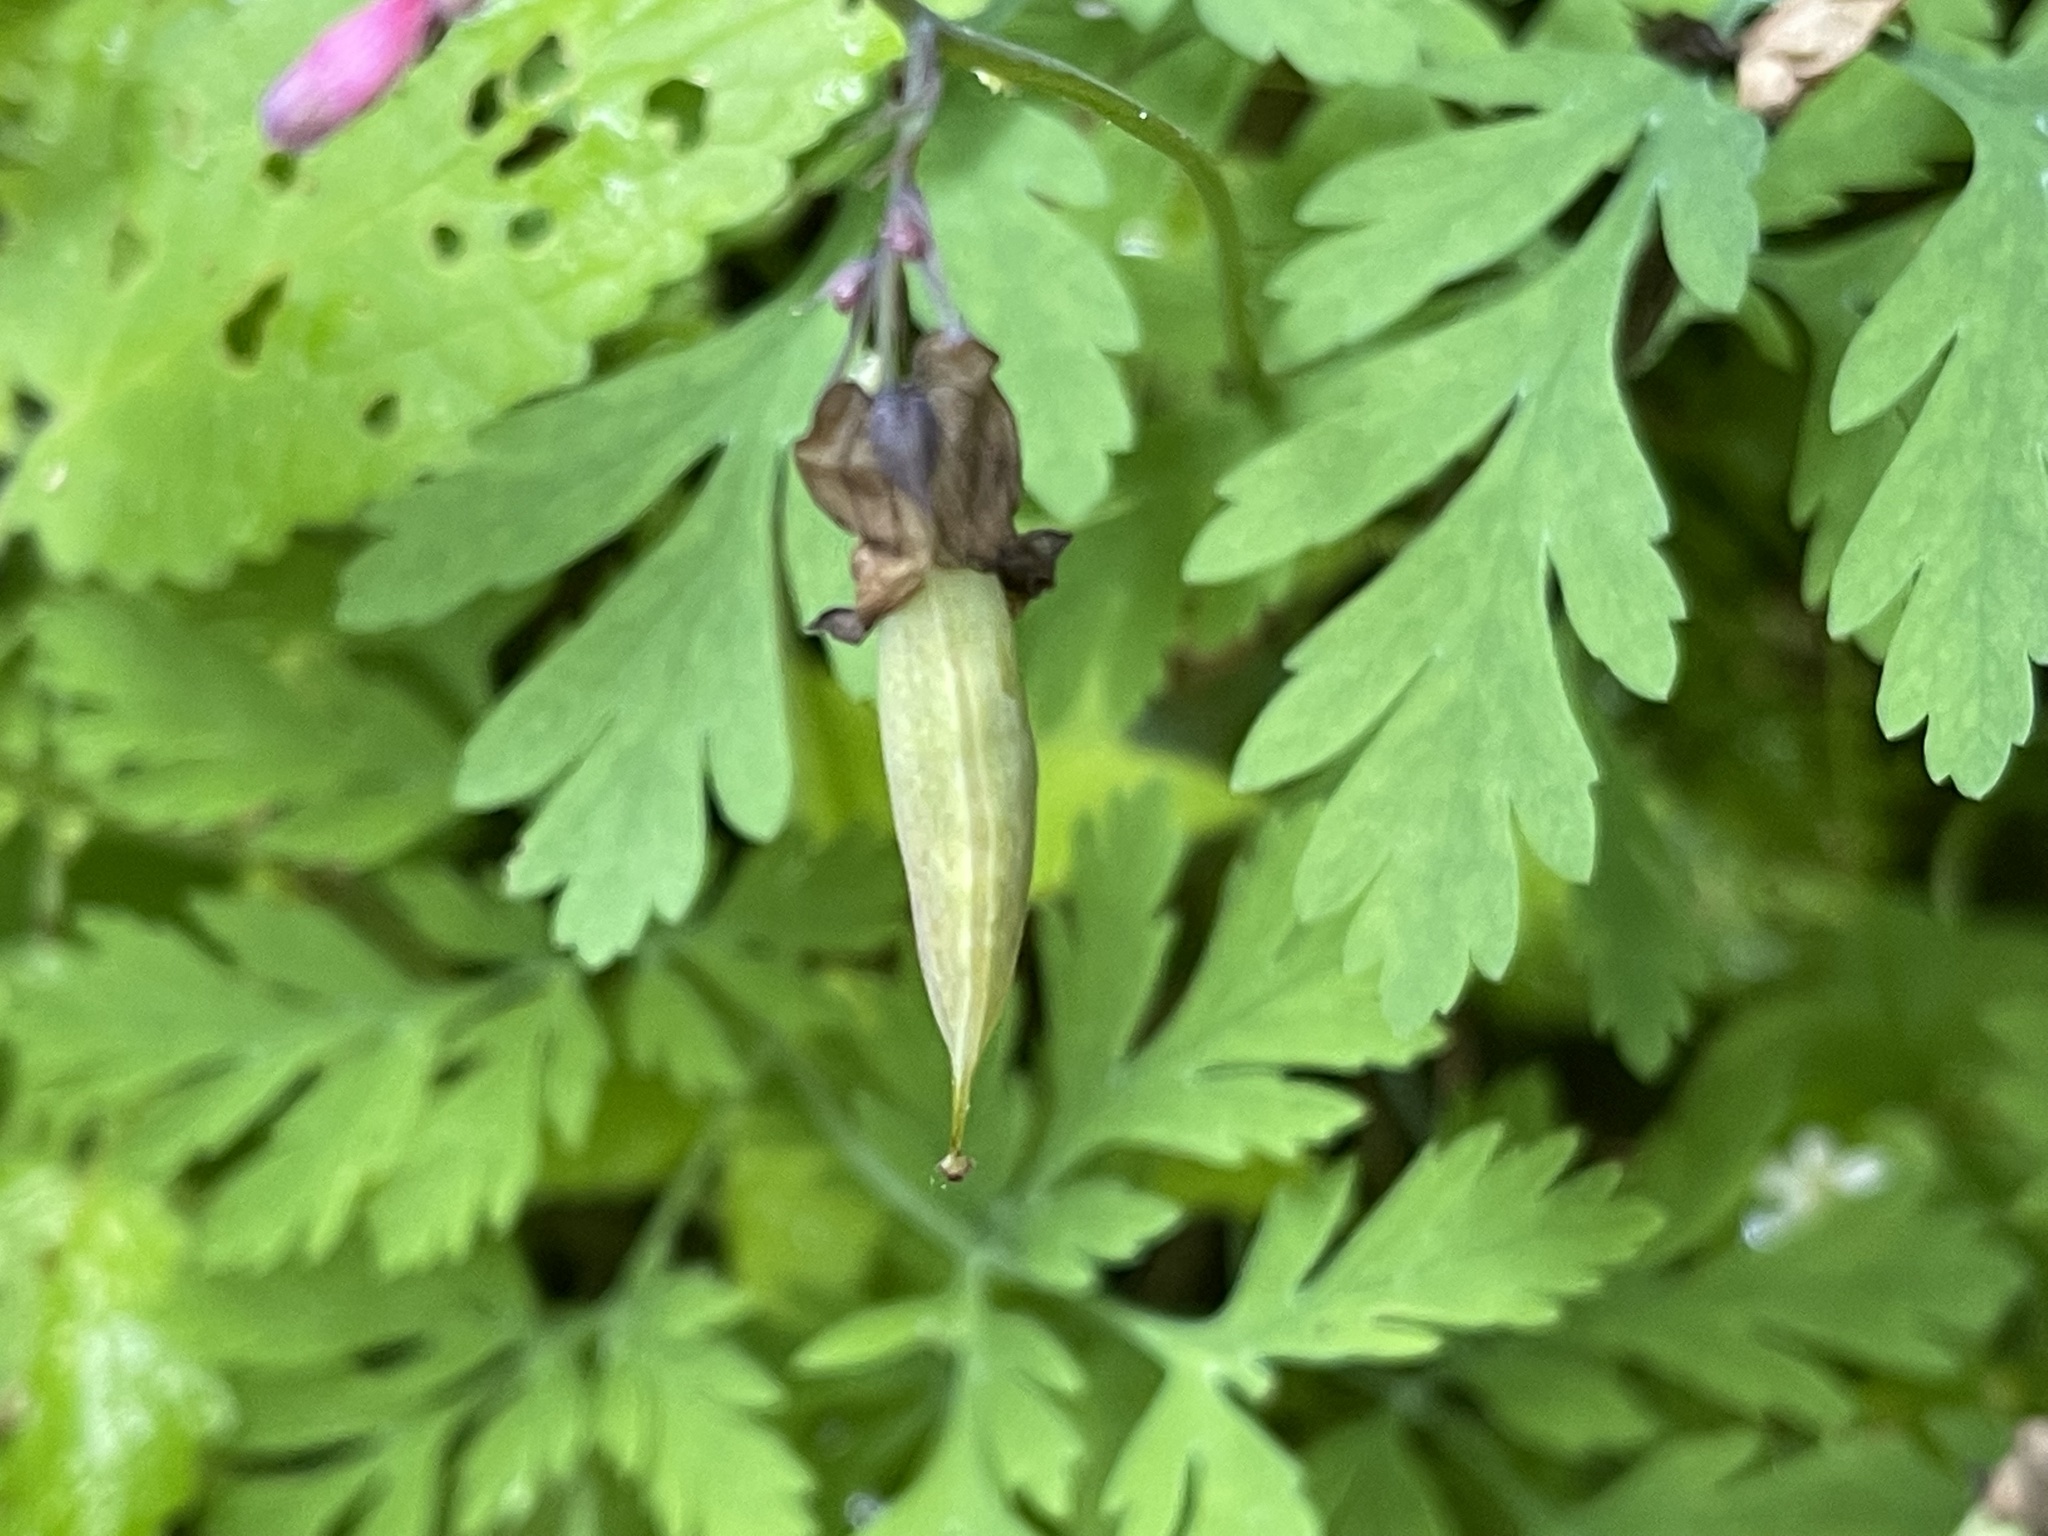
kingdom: Plantae
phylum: Tracheophyta
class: Magnoliopsida
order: Ranunculales
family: Papaveraceae
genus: Dicentra
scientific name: Dicentra formosa
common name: Bleeding-heart
